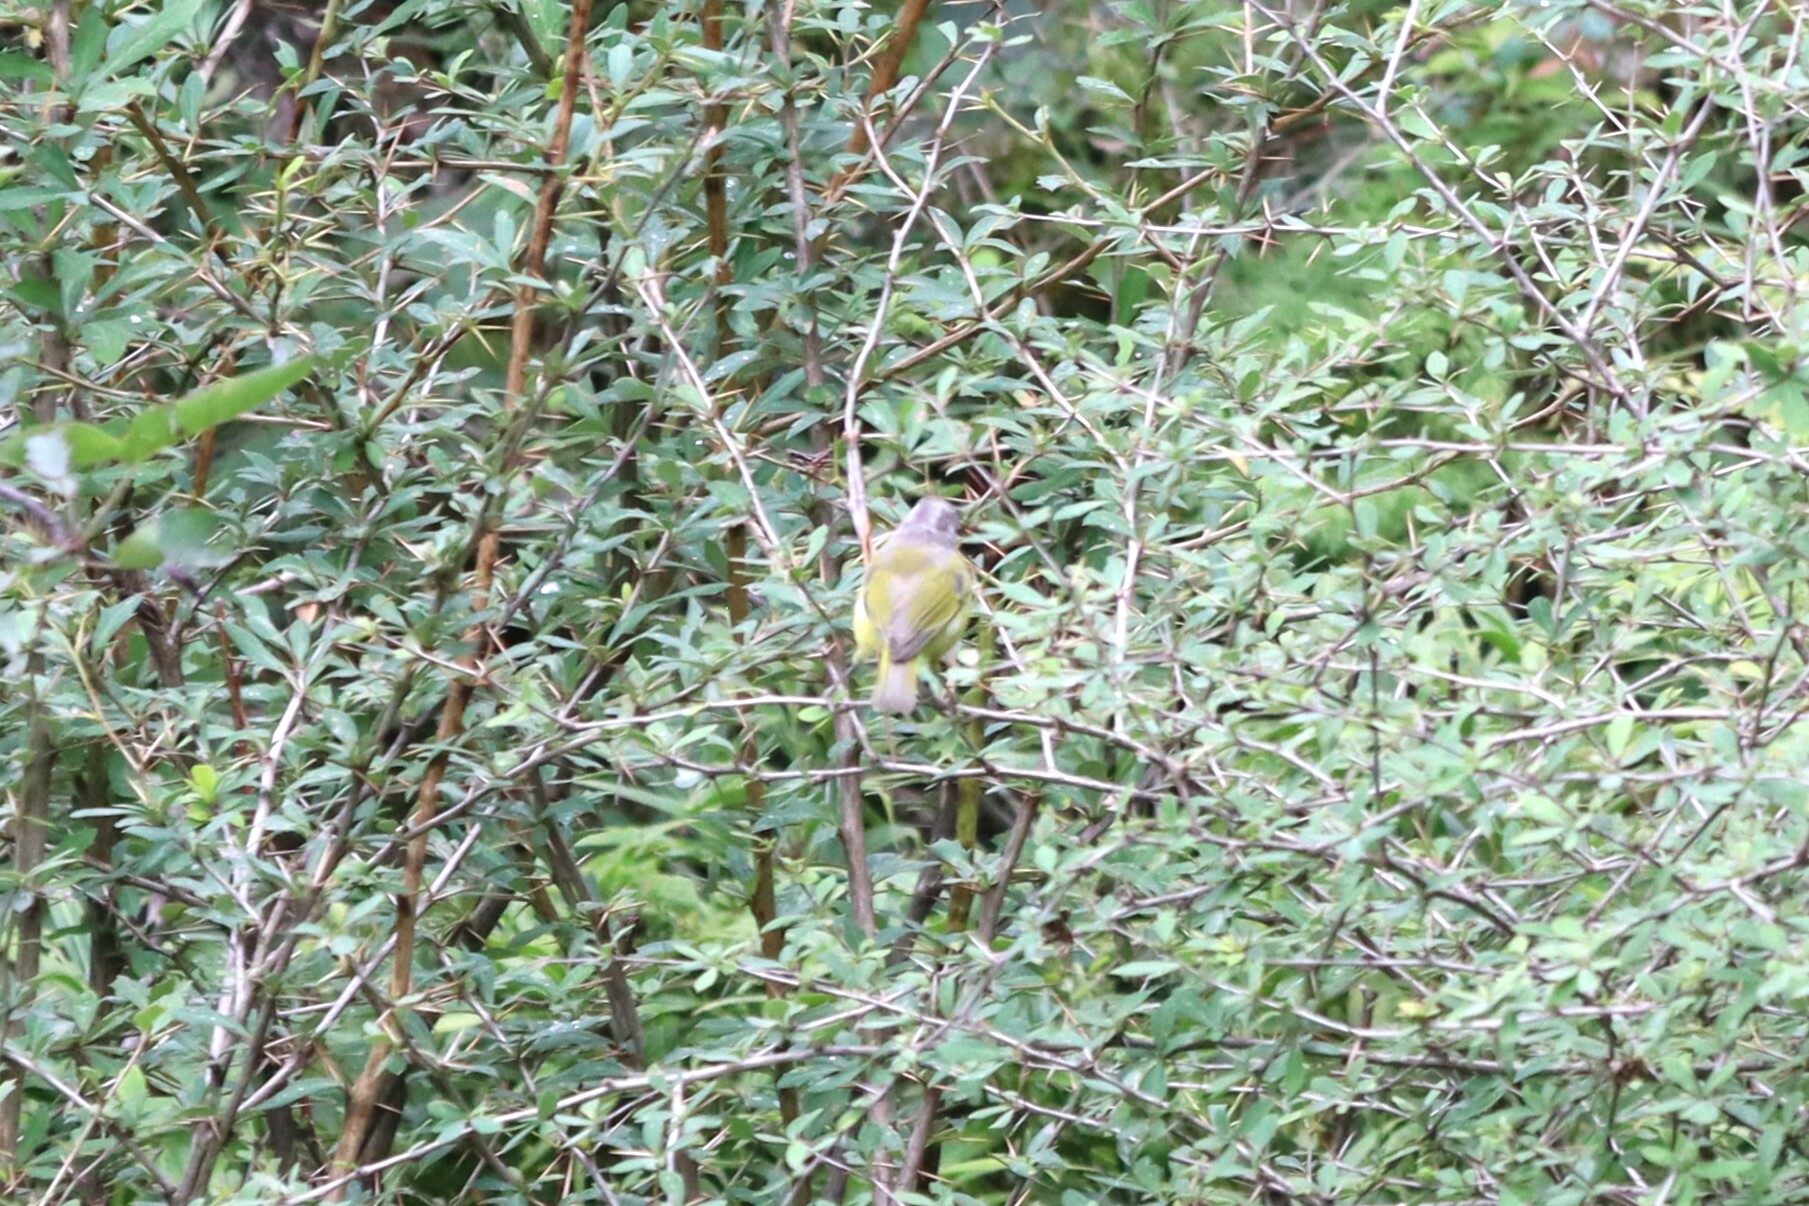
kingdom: Animalia
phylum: Chordata
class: Aves
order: Passeriformes
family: Phylloscopidae
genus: Phylloscopus
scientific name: Phylloscopus xanthoschistos
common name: Grey-hooded warbler
